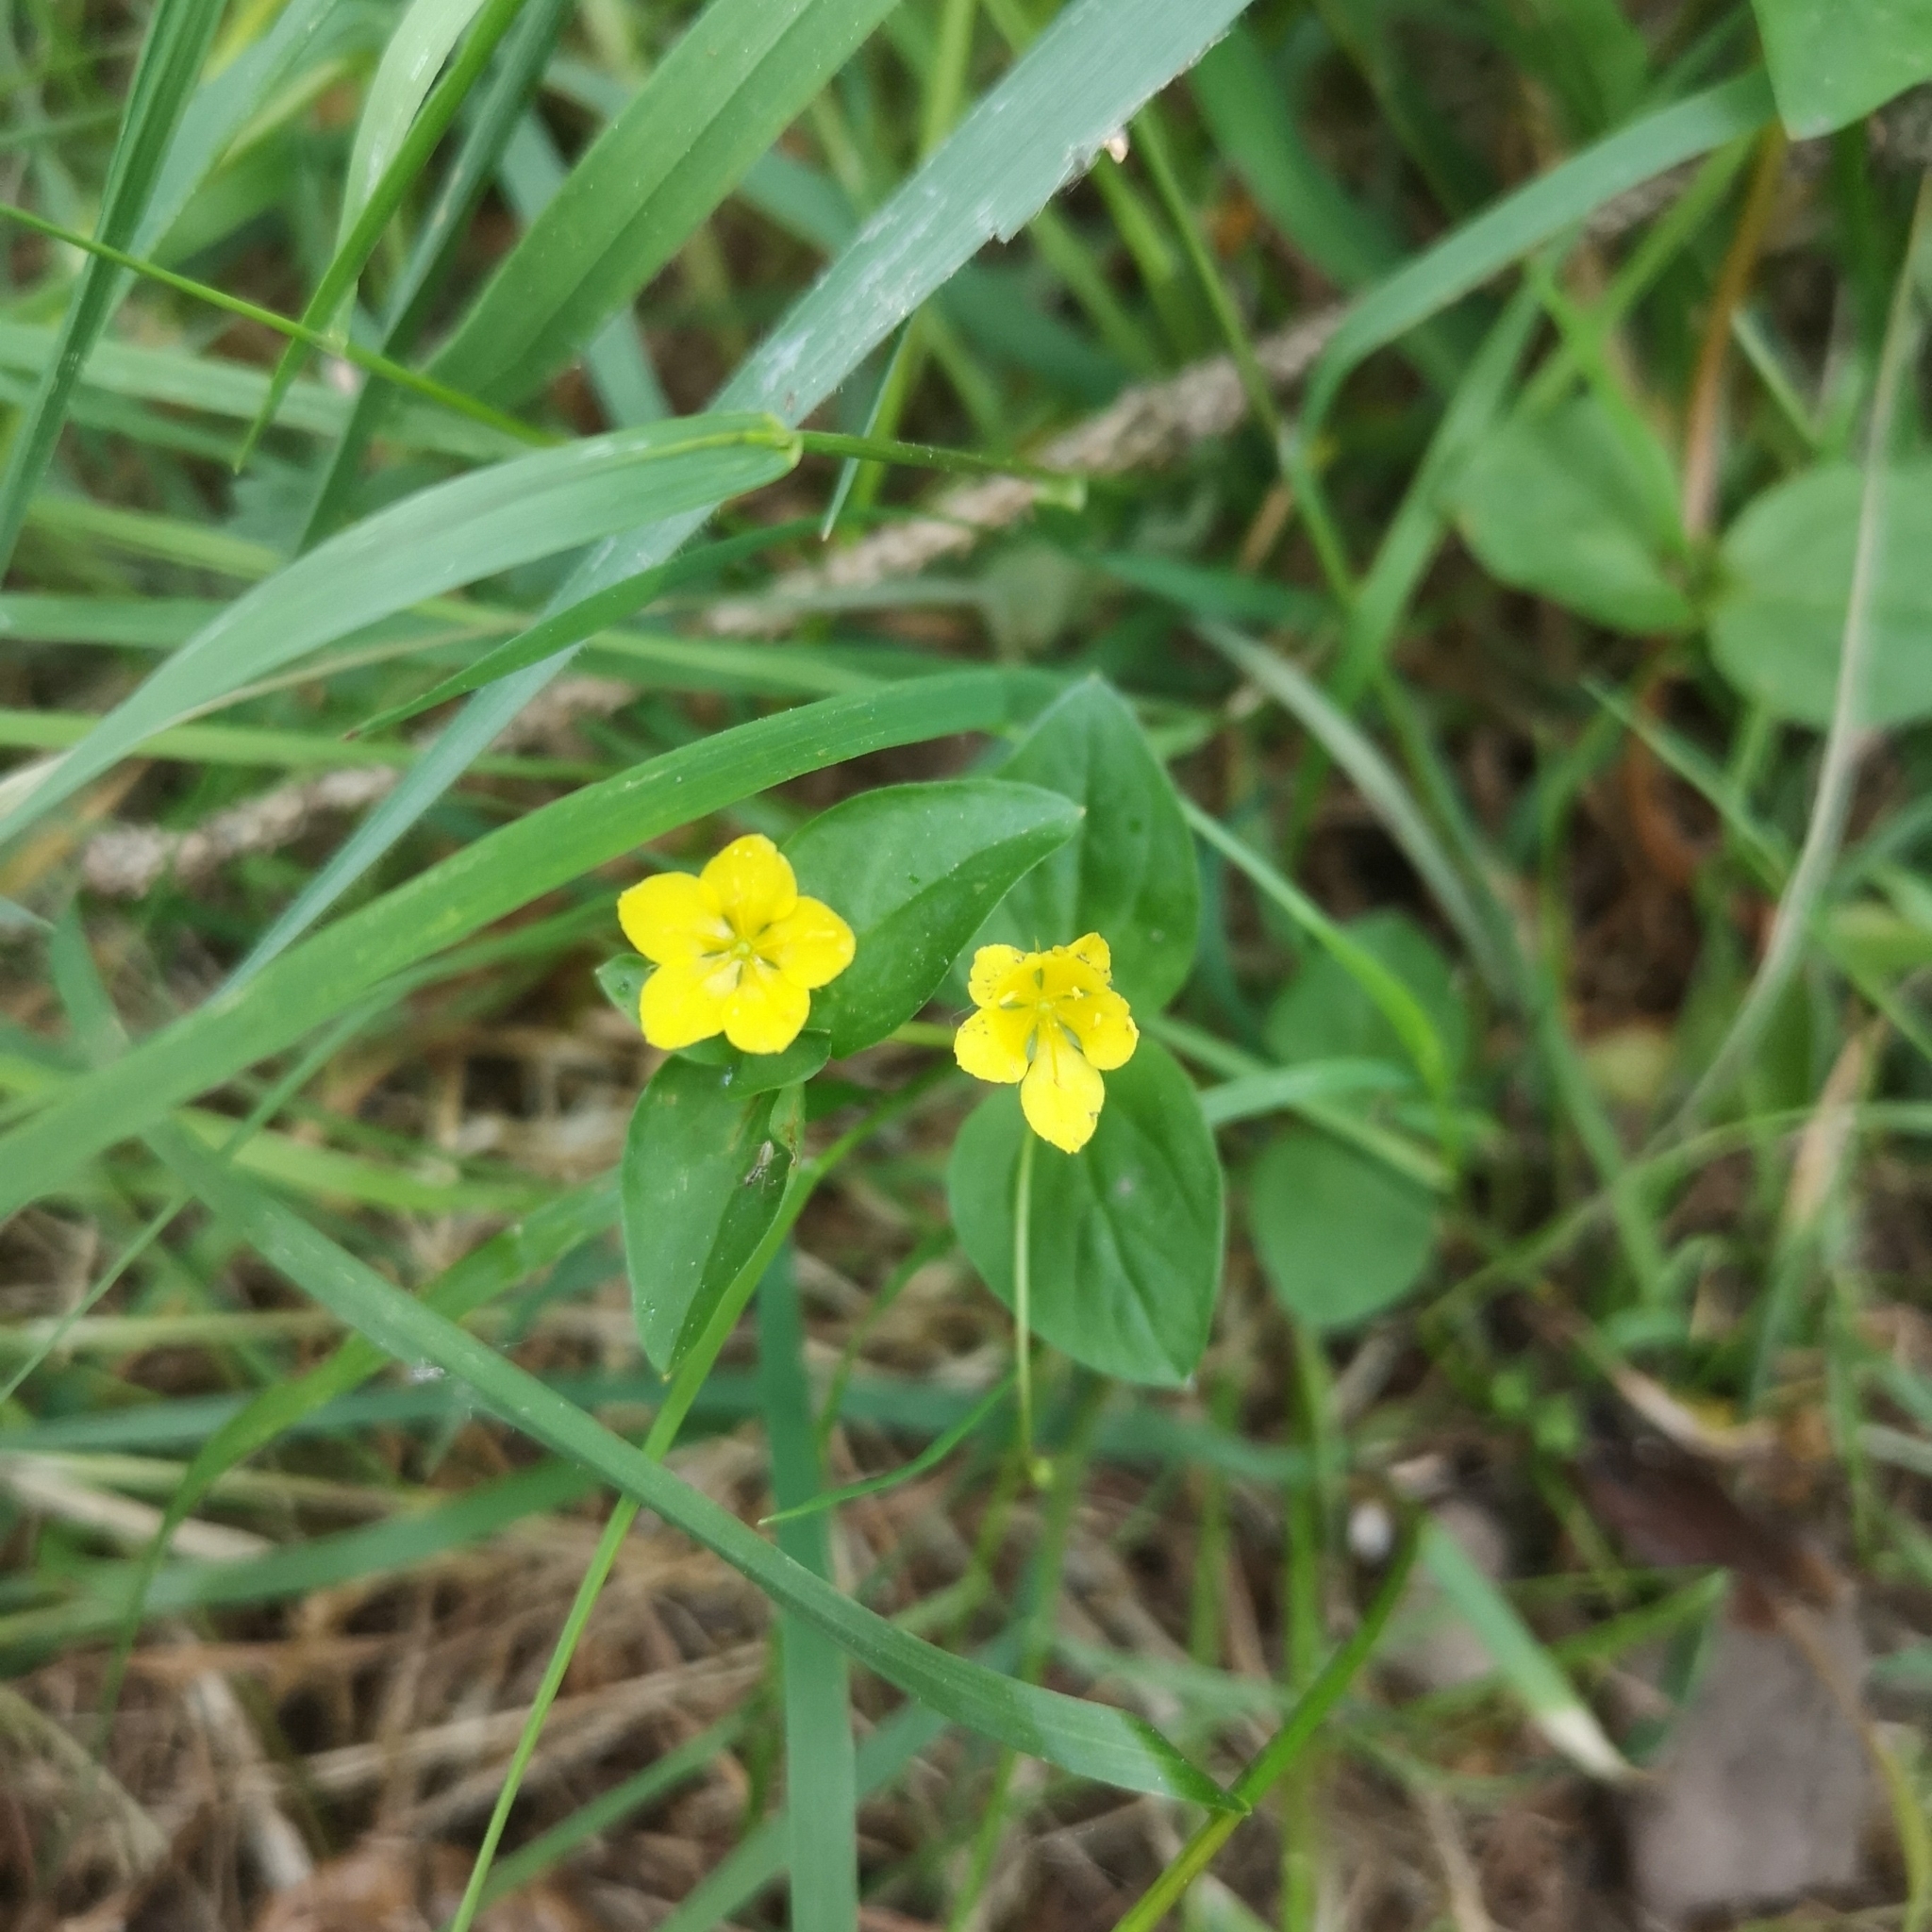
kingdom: Plantae
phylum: Tracheophyta
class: Magnoliopsida
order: Ericales
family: Primulaceae
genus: Lysimachia
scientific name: Lysimachia nemorum
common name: Yellow pimpernel
